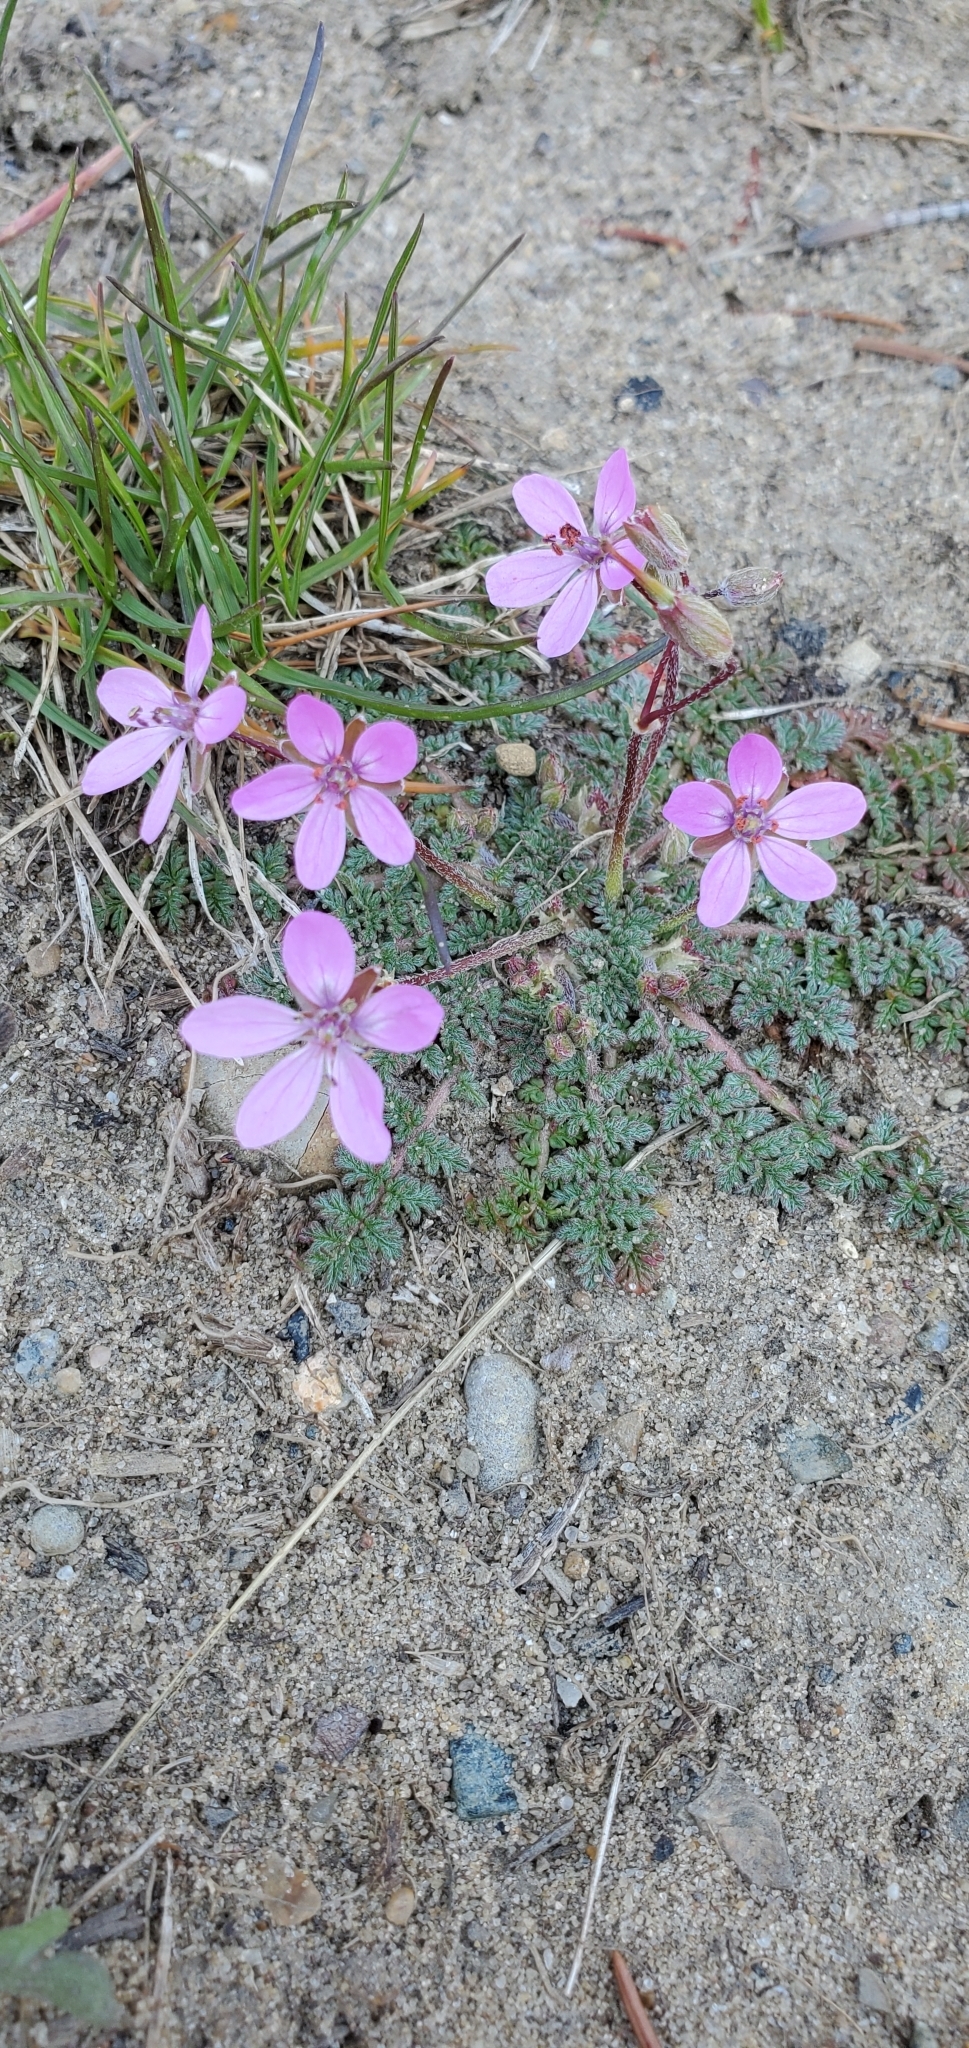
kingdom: Plantae
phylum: Tracheophyta
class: Magnoliopsida
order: Geraniales
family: Geraniaceae
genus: Erodium
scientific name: Erodium cicutarium
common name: Common stork's-bill
